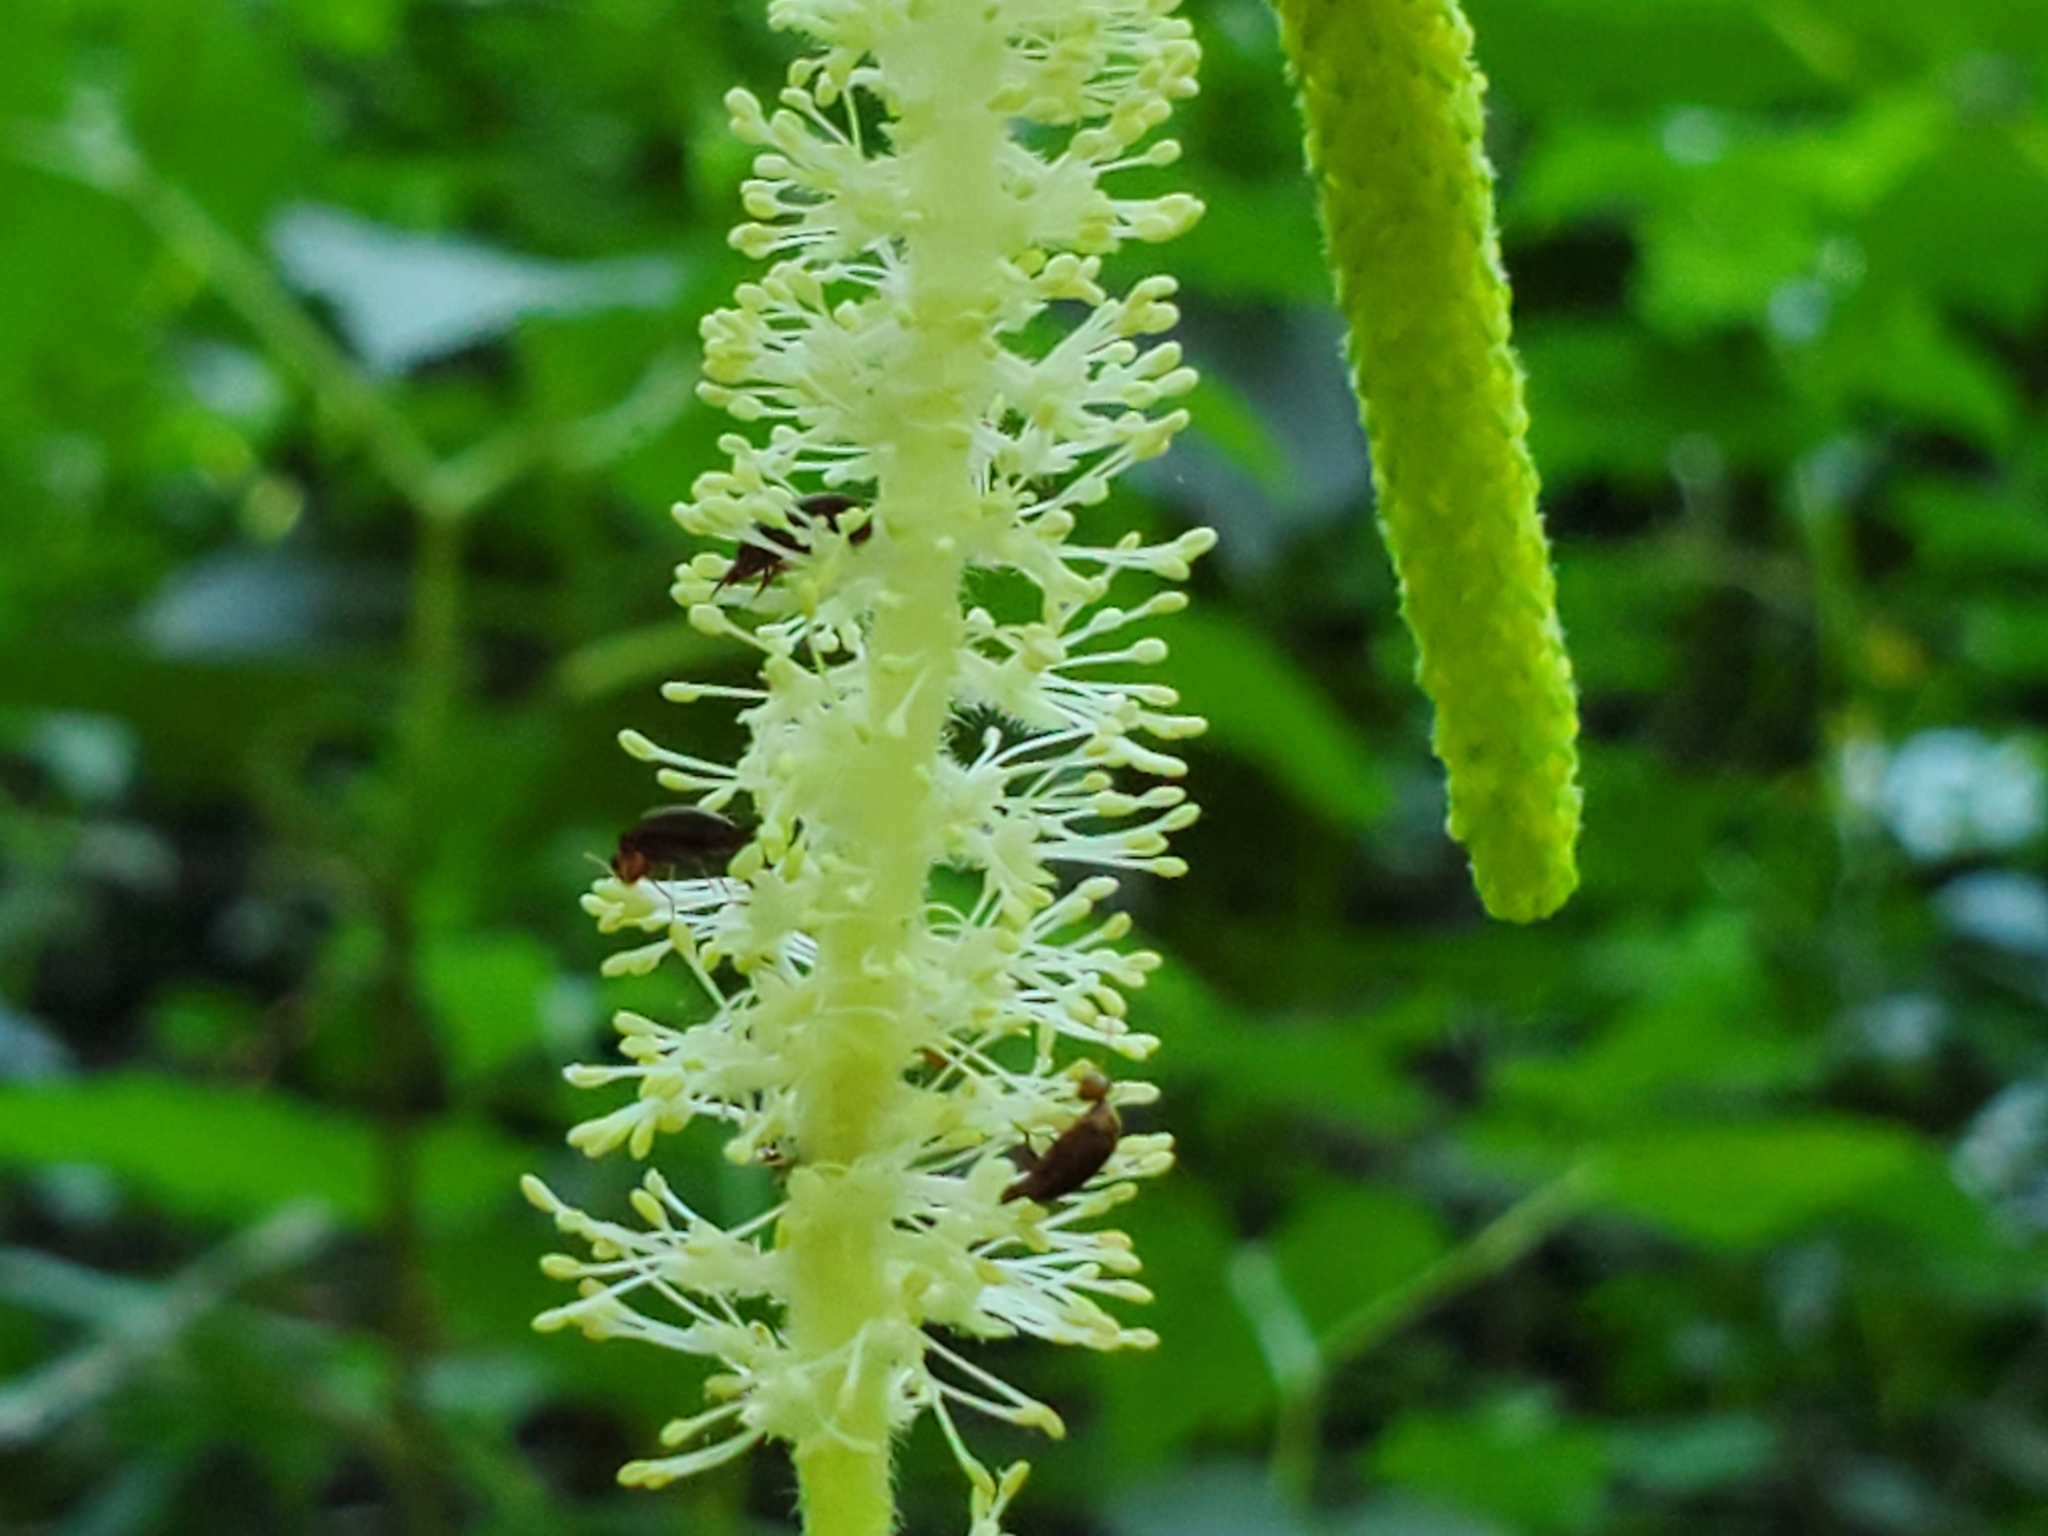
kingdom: Plantae
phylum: Tracheophyta
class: Magnoliopsida
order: Piperales
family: Saururaceae
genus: Saururus
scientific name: Saururus cernuus
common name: Lizard's-tail
